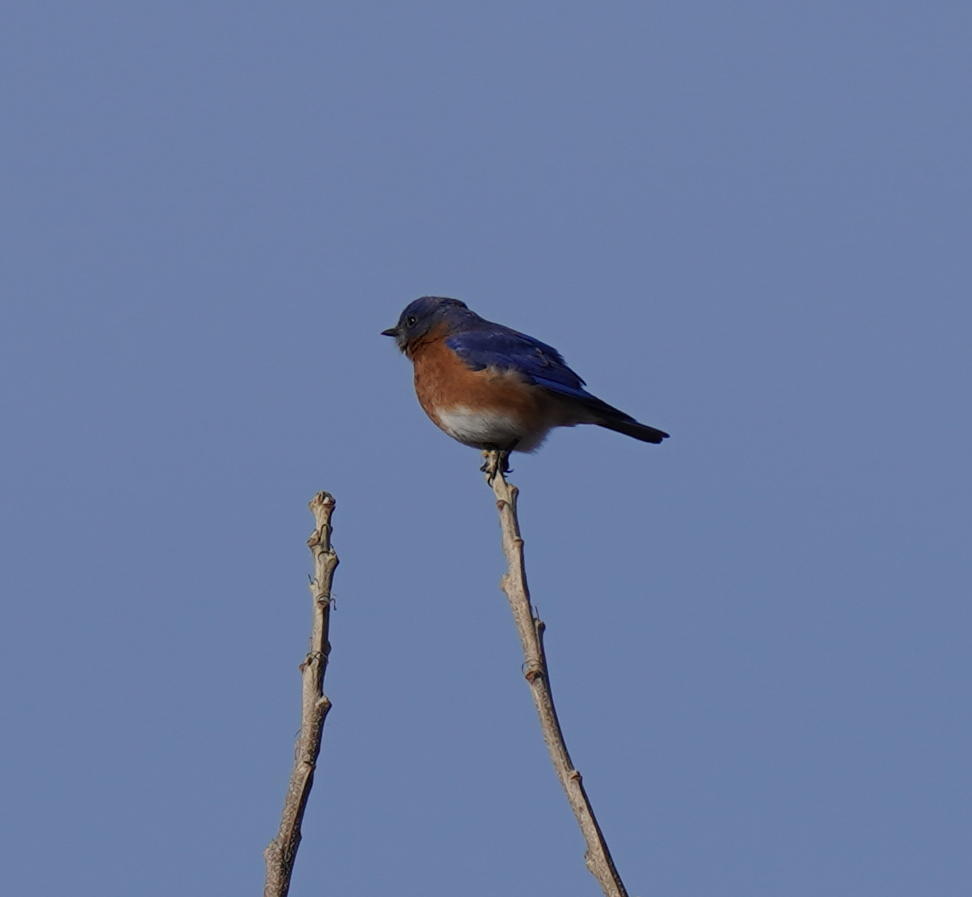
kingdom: Animalia
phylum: Chordata
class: Aves
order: Passeriformes
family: Turdidae
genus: Sialia
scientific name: Sialia sialis
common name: Eastern bluebird
